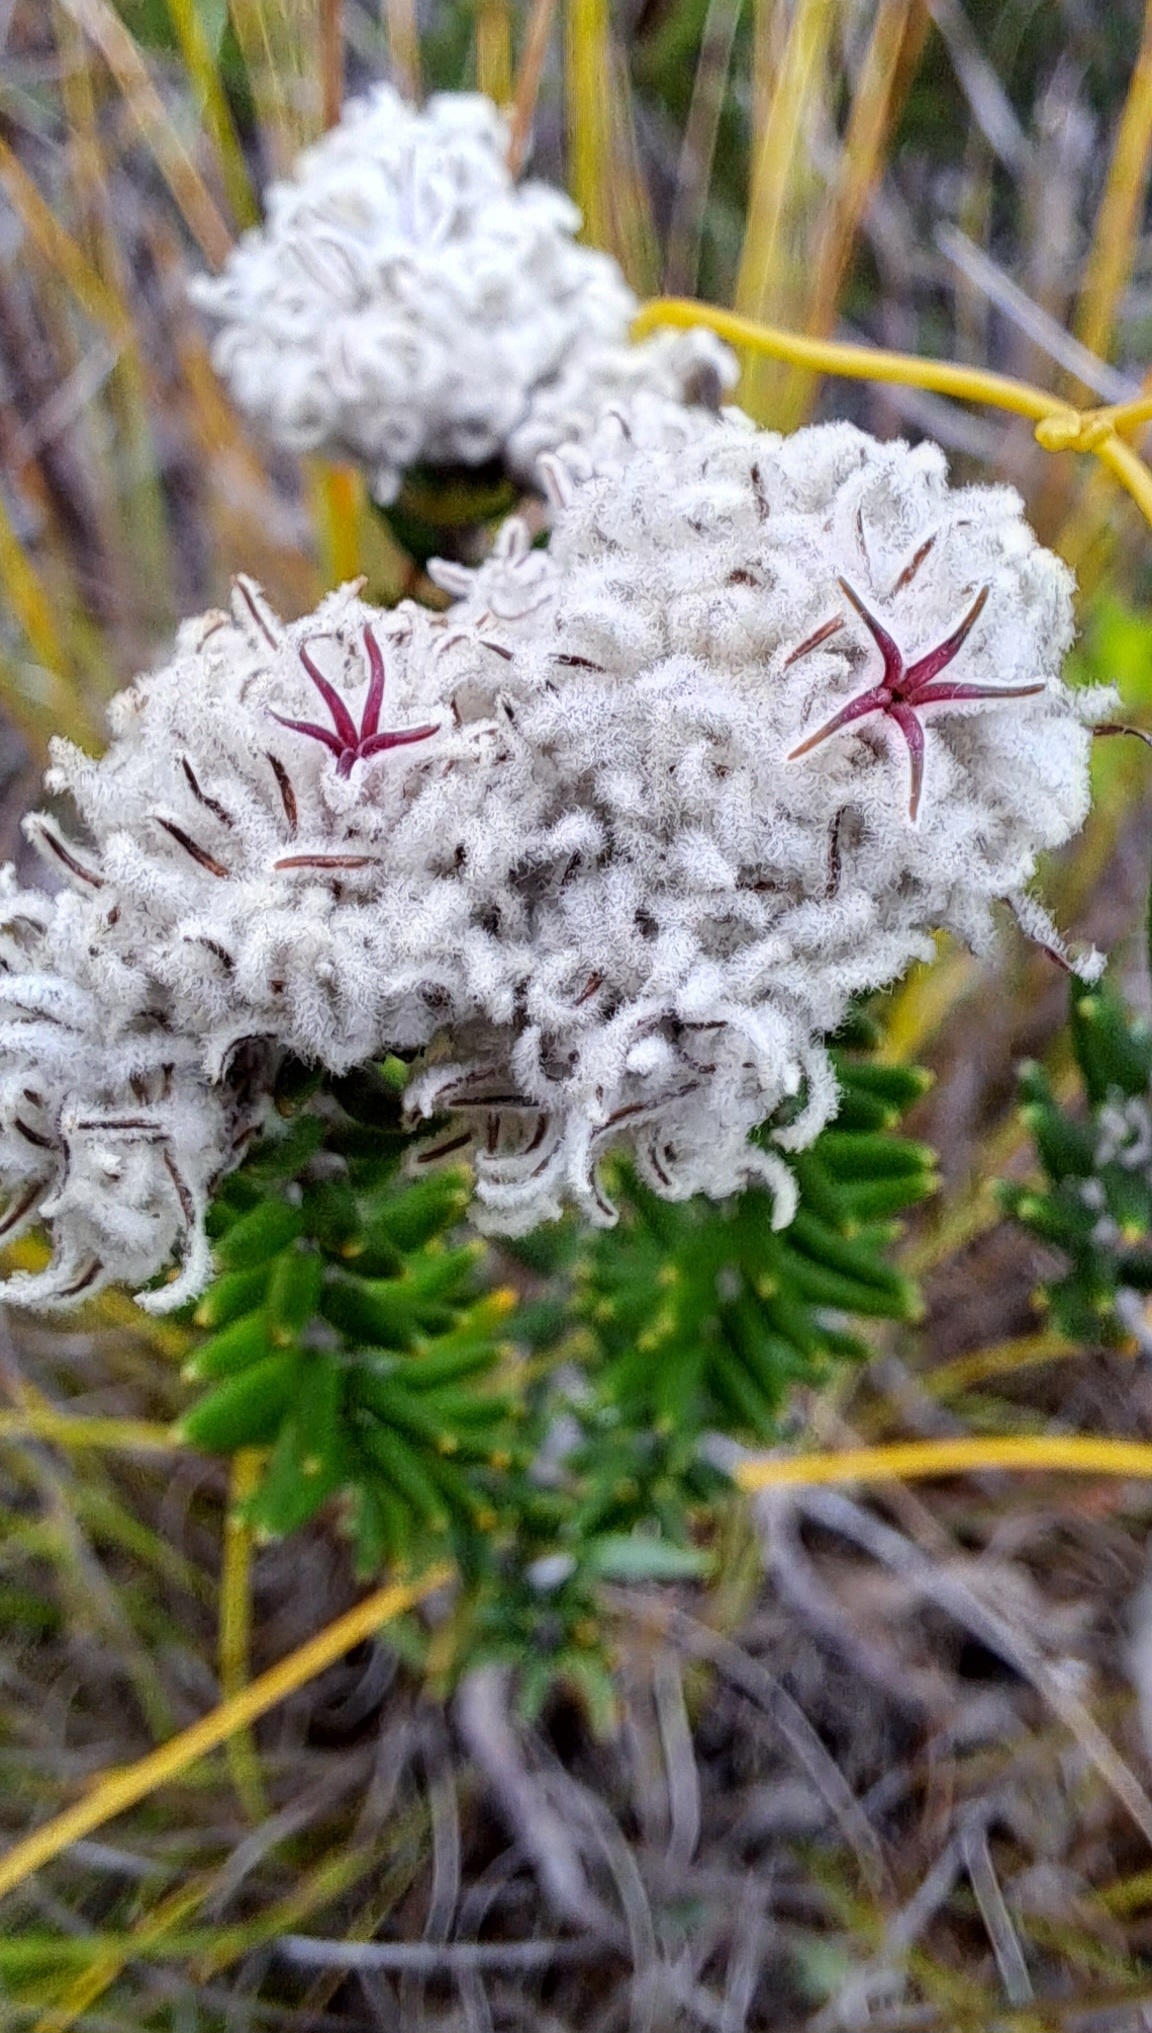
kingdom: Plantae
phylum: Tracheophyta
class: Magnoliopsida
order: Rosales
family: Rhamnaceae
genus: Trichocephalus
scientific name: Trichocephalus stipularis
